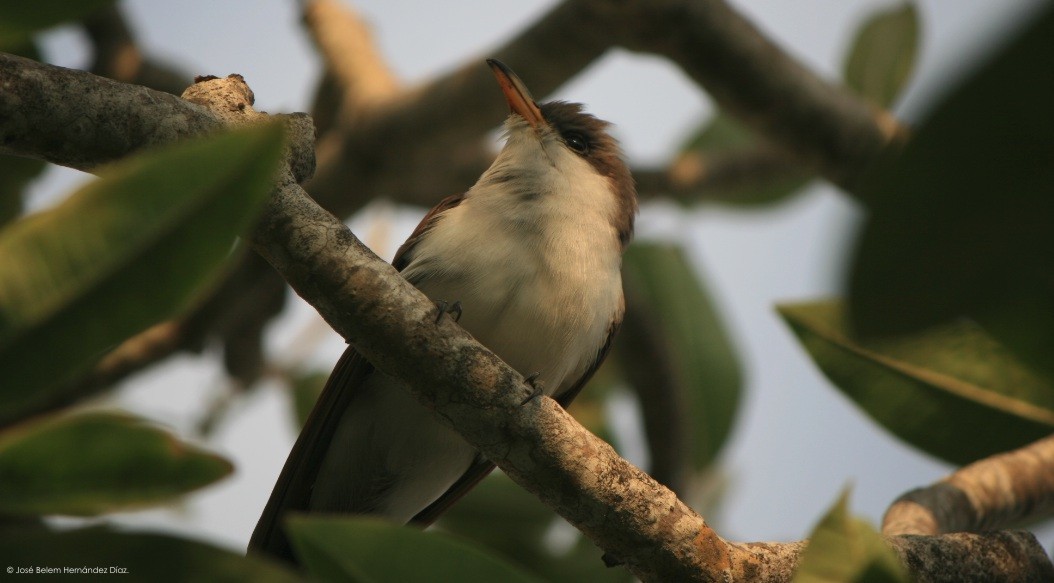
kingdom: Animalia
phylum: Chordata
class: Aves
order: Cuculiformes
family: Cuculidae
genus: Coccyzus
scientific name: Coccyzus americanus
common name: Yellow-billed cuckoo
